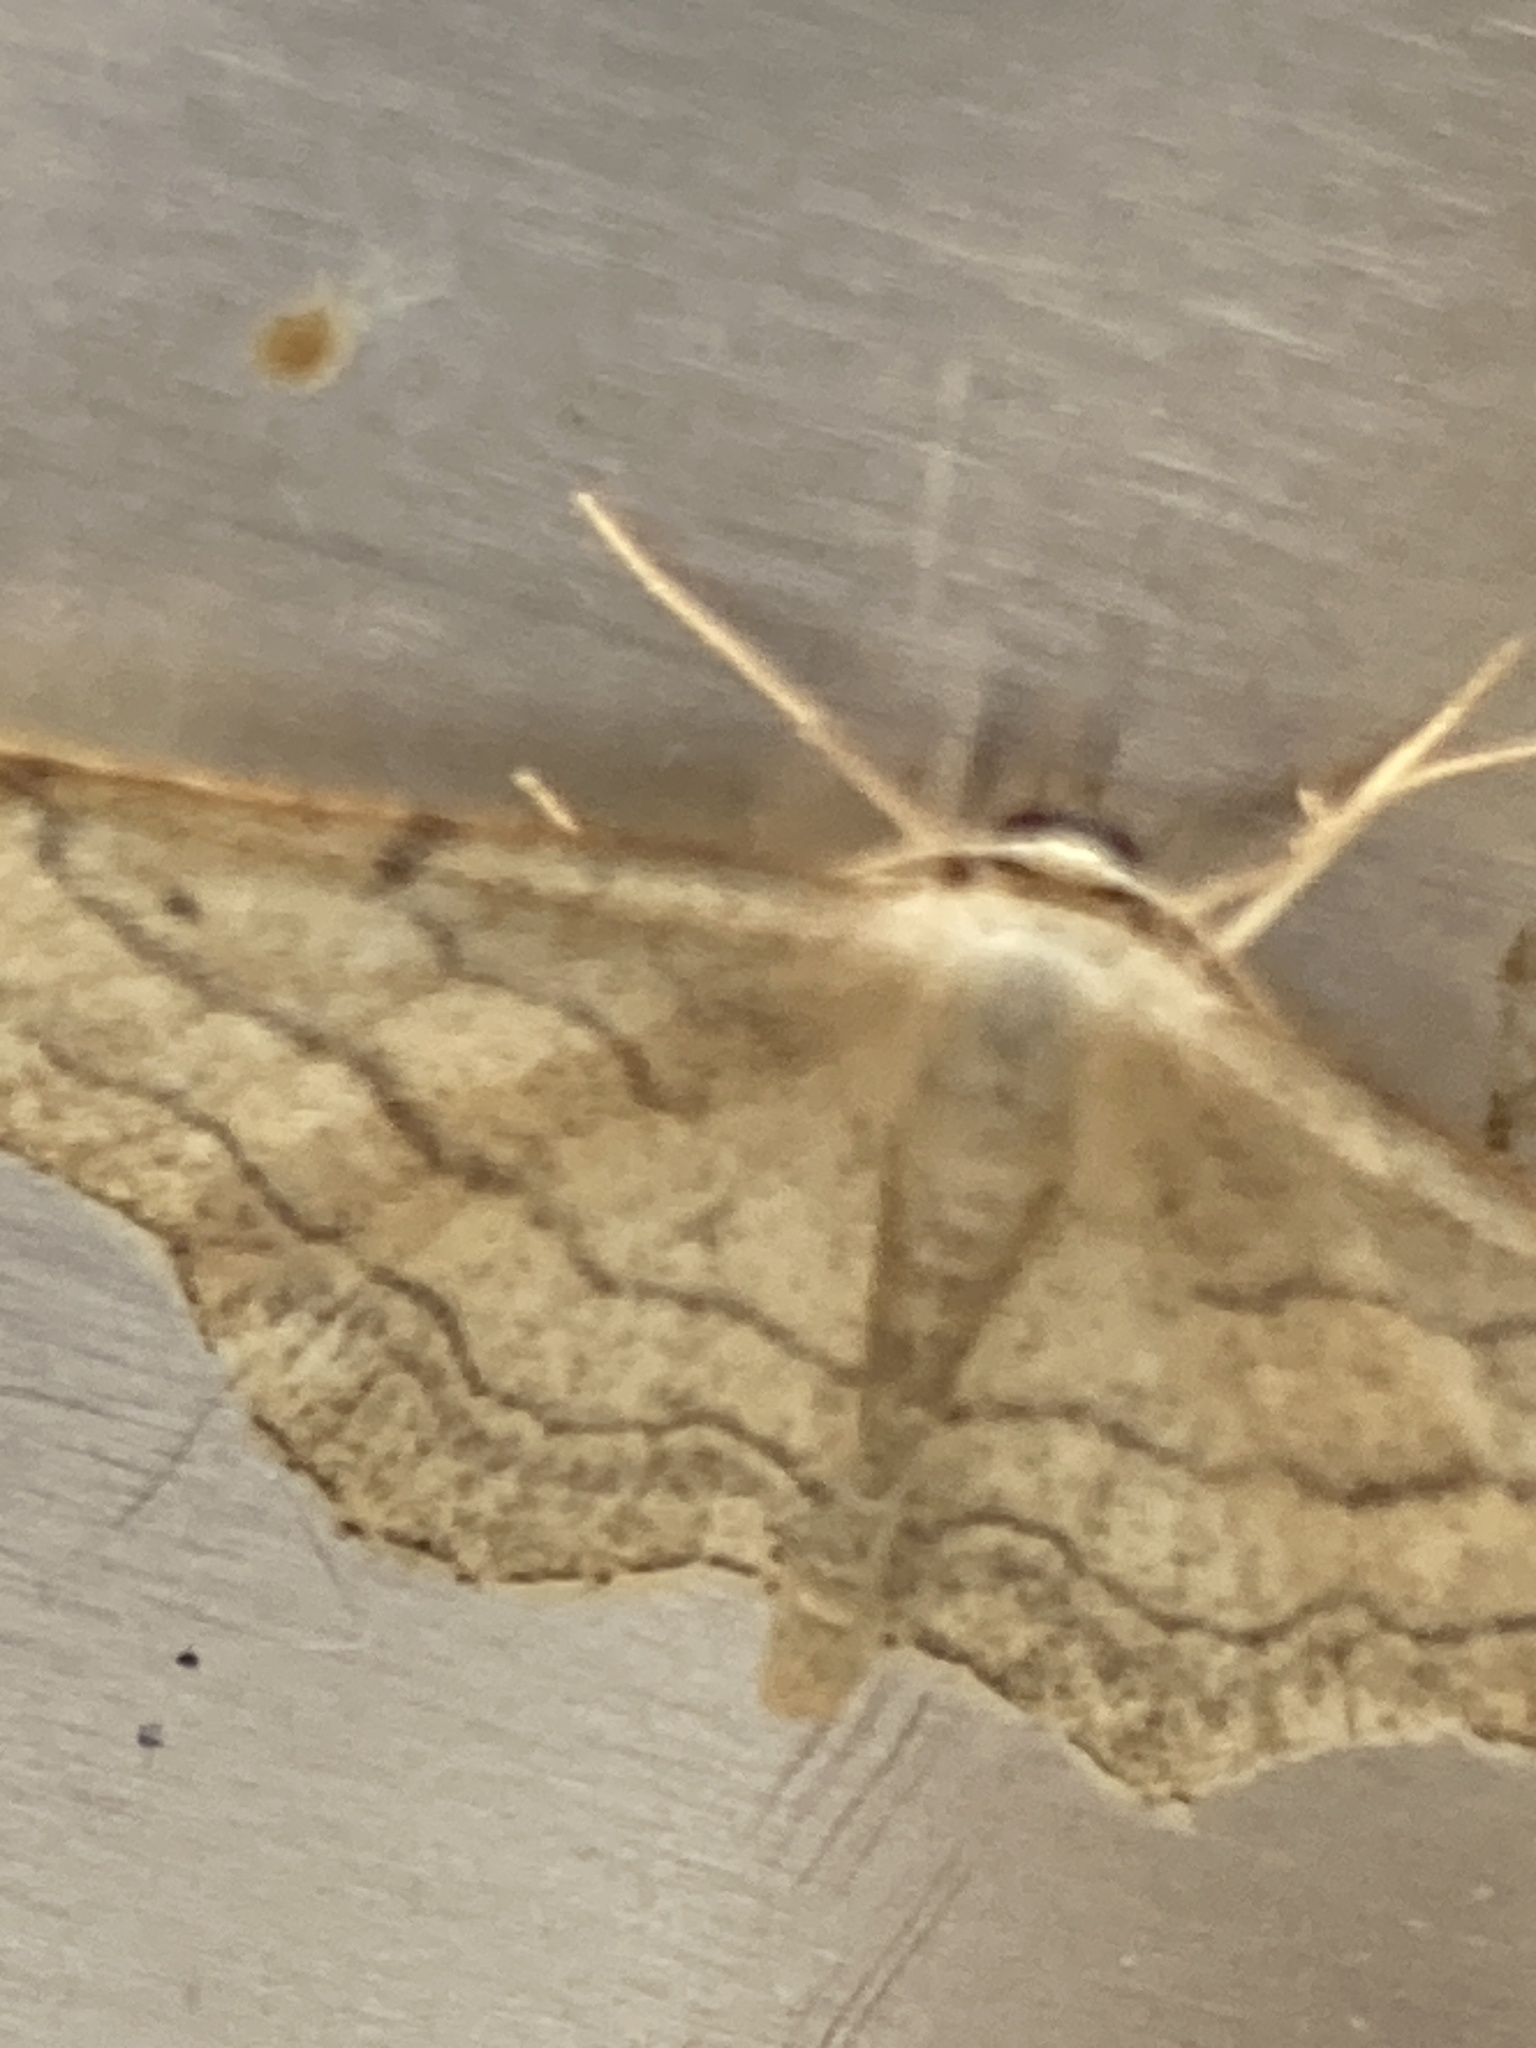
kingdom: Animalia
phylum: Arthropoda
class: Insecta
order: Lepidoptera
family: Geometridae
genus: Idaea
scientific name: Idaea aversata
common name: Riband wave
